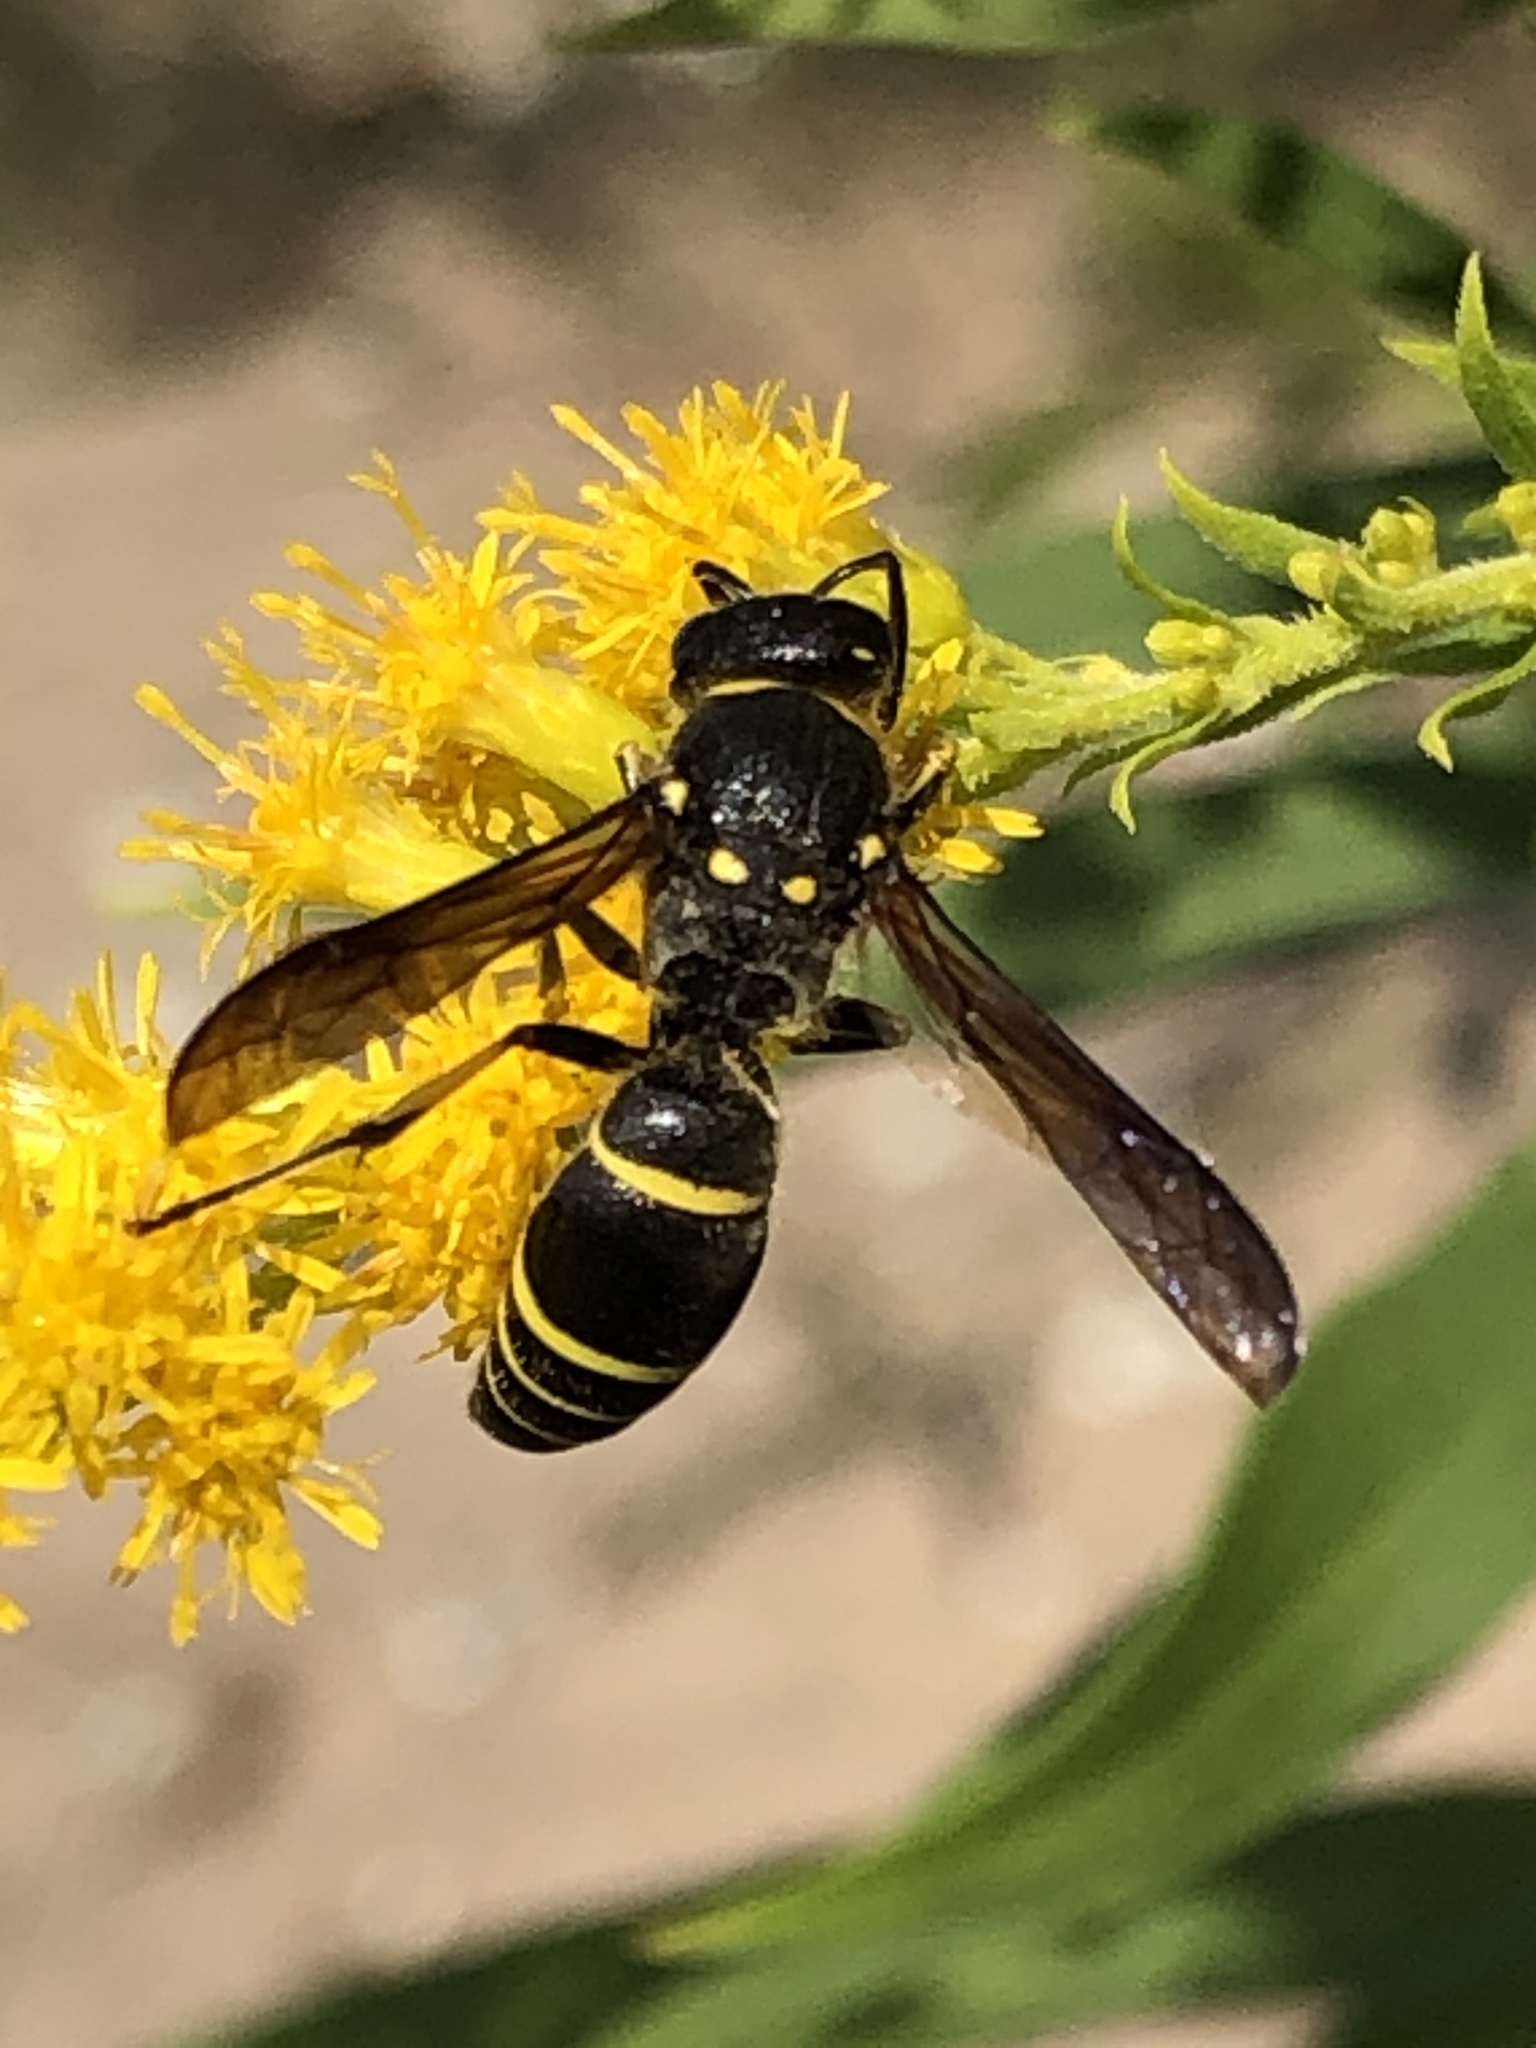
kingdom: Animalia
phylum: Arthropoda
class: Insecta
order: Hymenoptera
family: Vespidae
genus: Ancistrocerus
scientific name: Ancistrocerus
